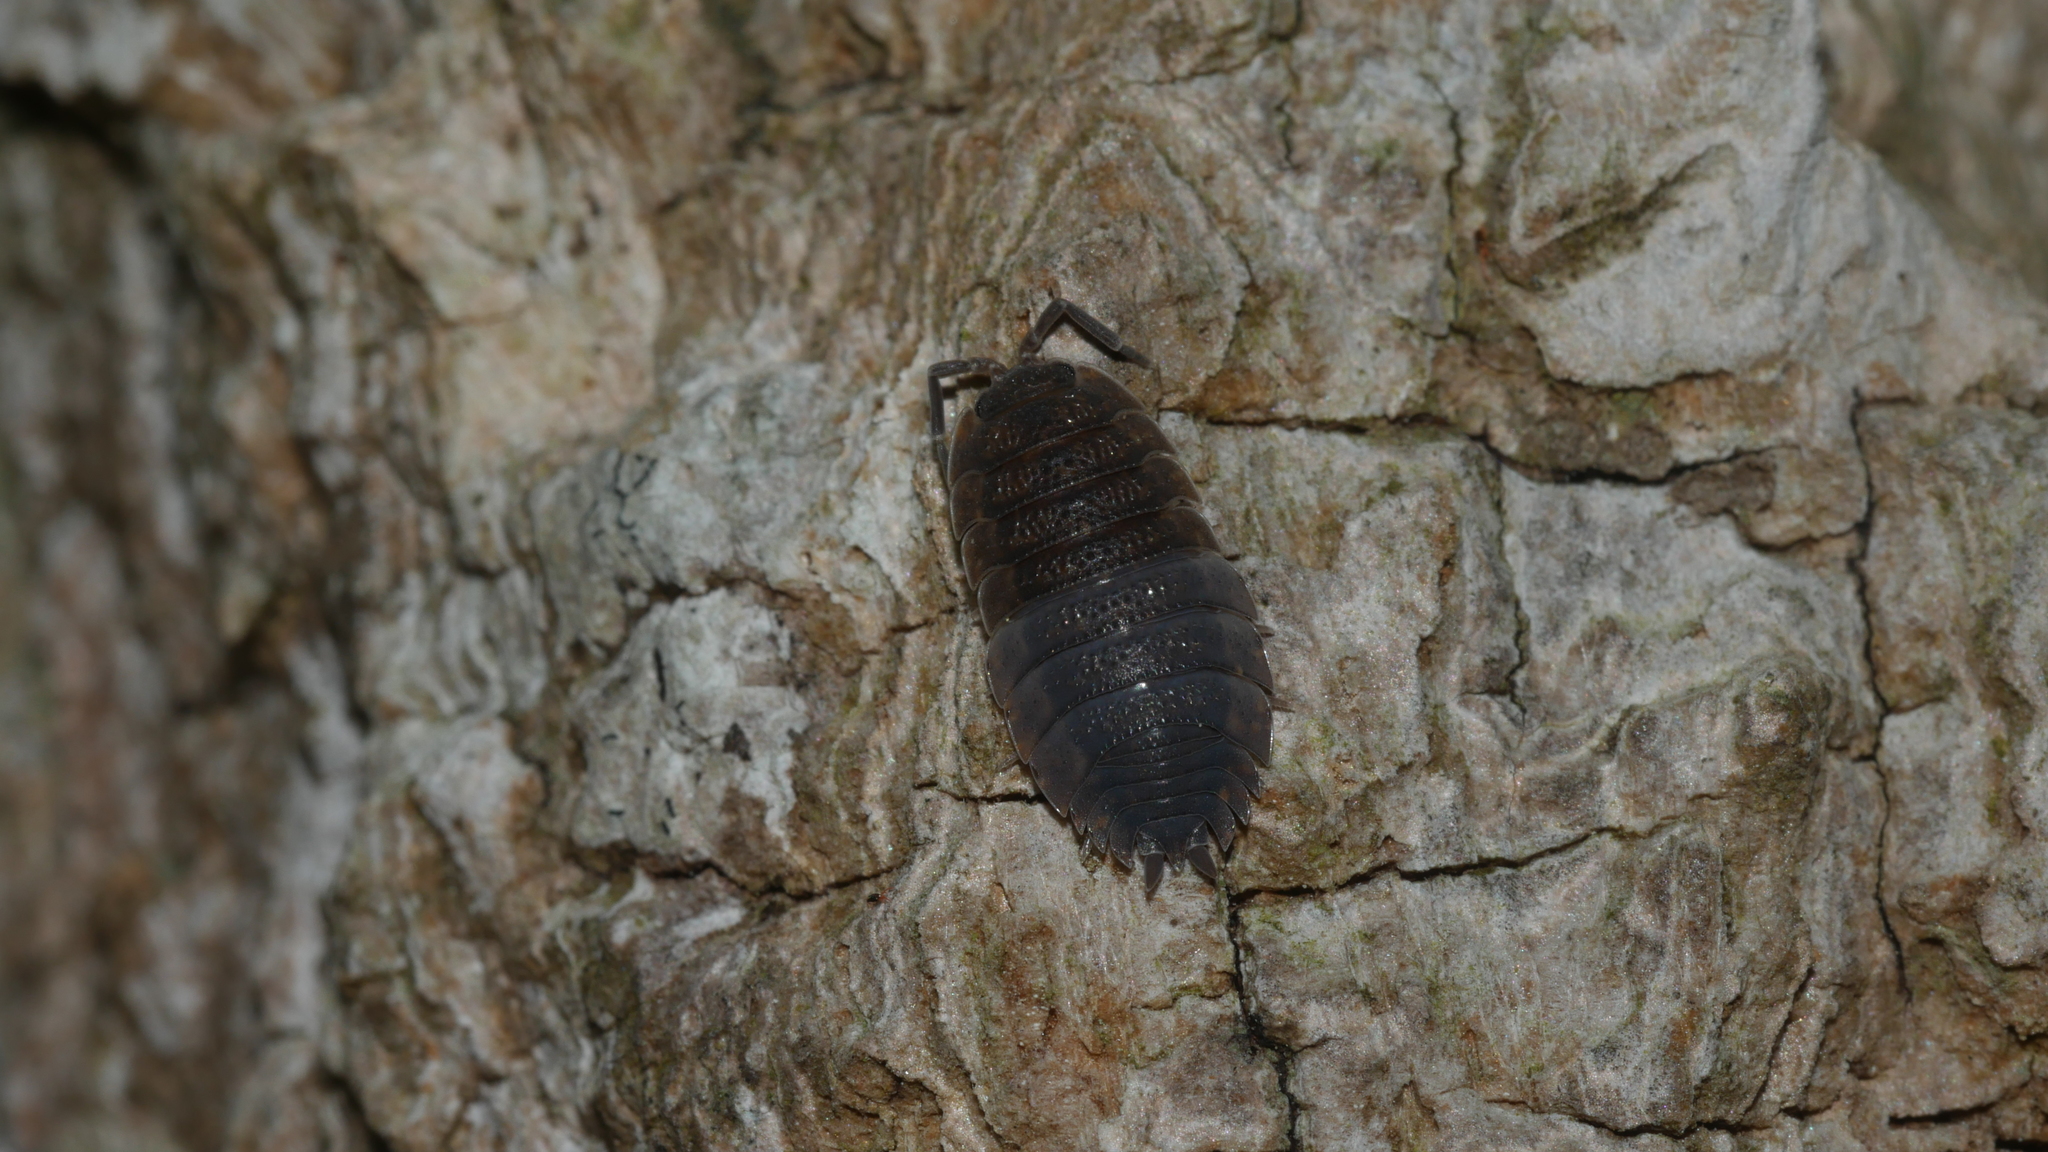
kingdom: Animalia
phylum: Arthropoda
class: Malacostraca
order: Isopoda
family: Porcellionidae
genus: Porcellio
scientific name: Porcellio scaber
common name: Common rough woodlouse
